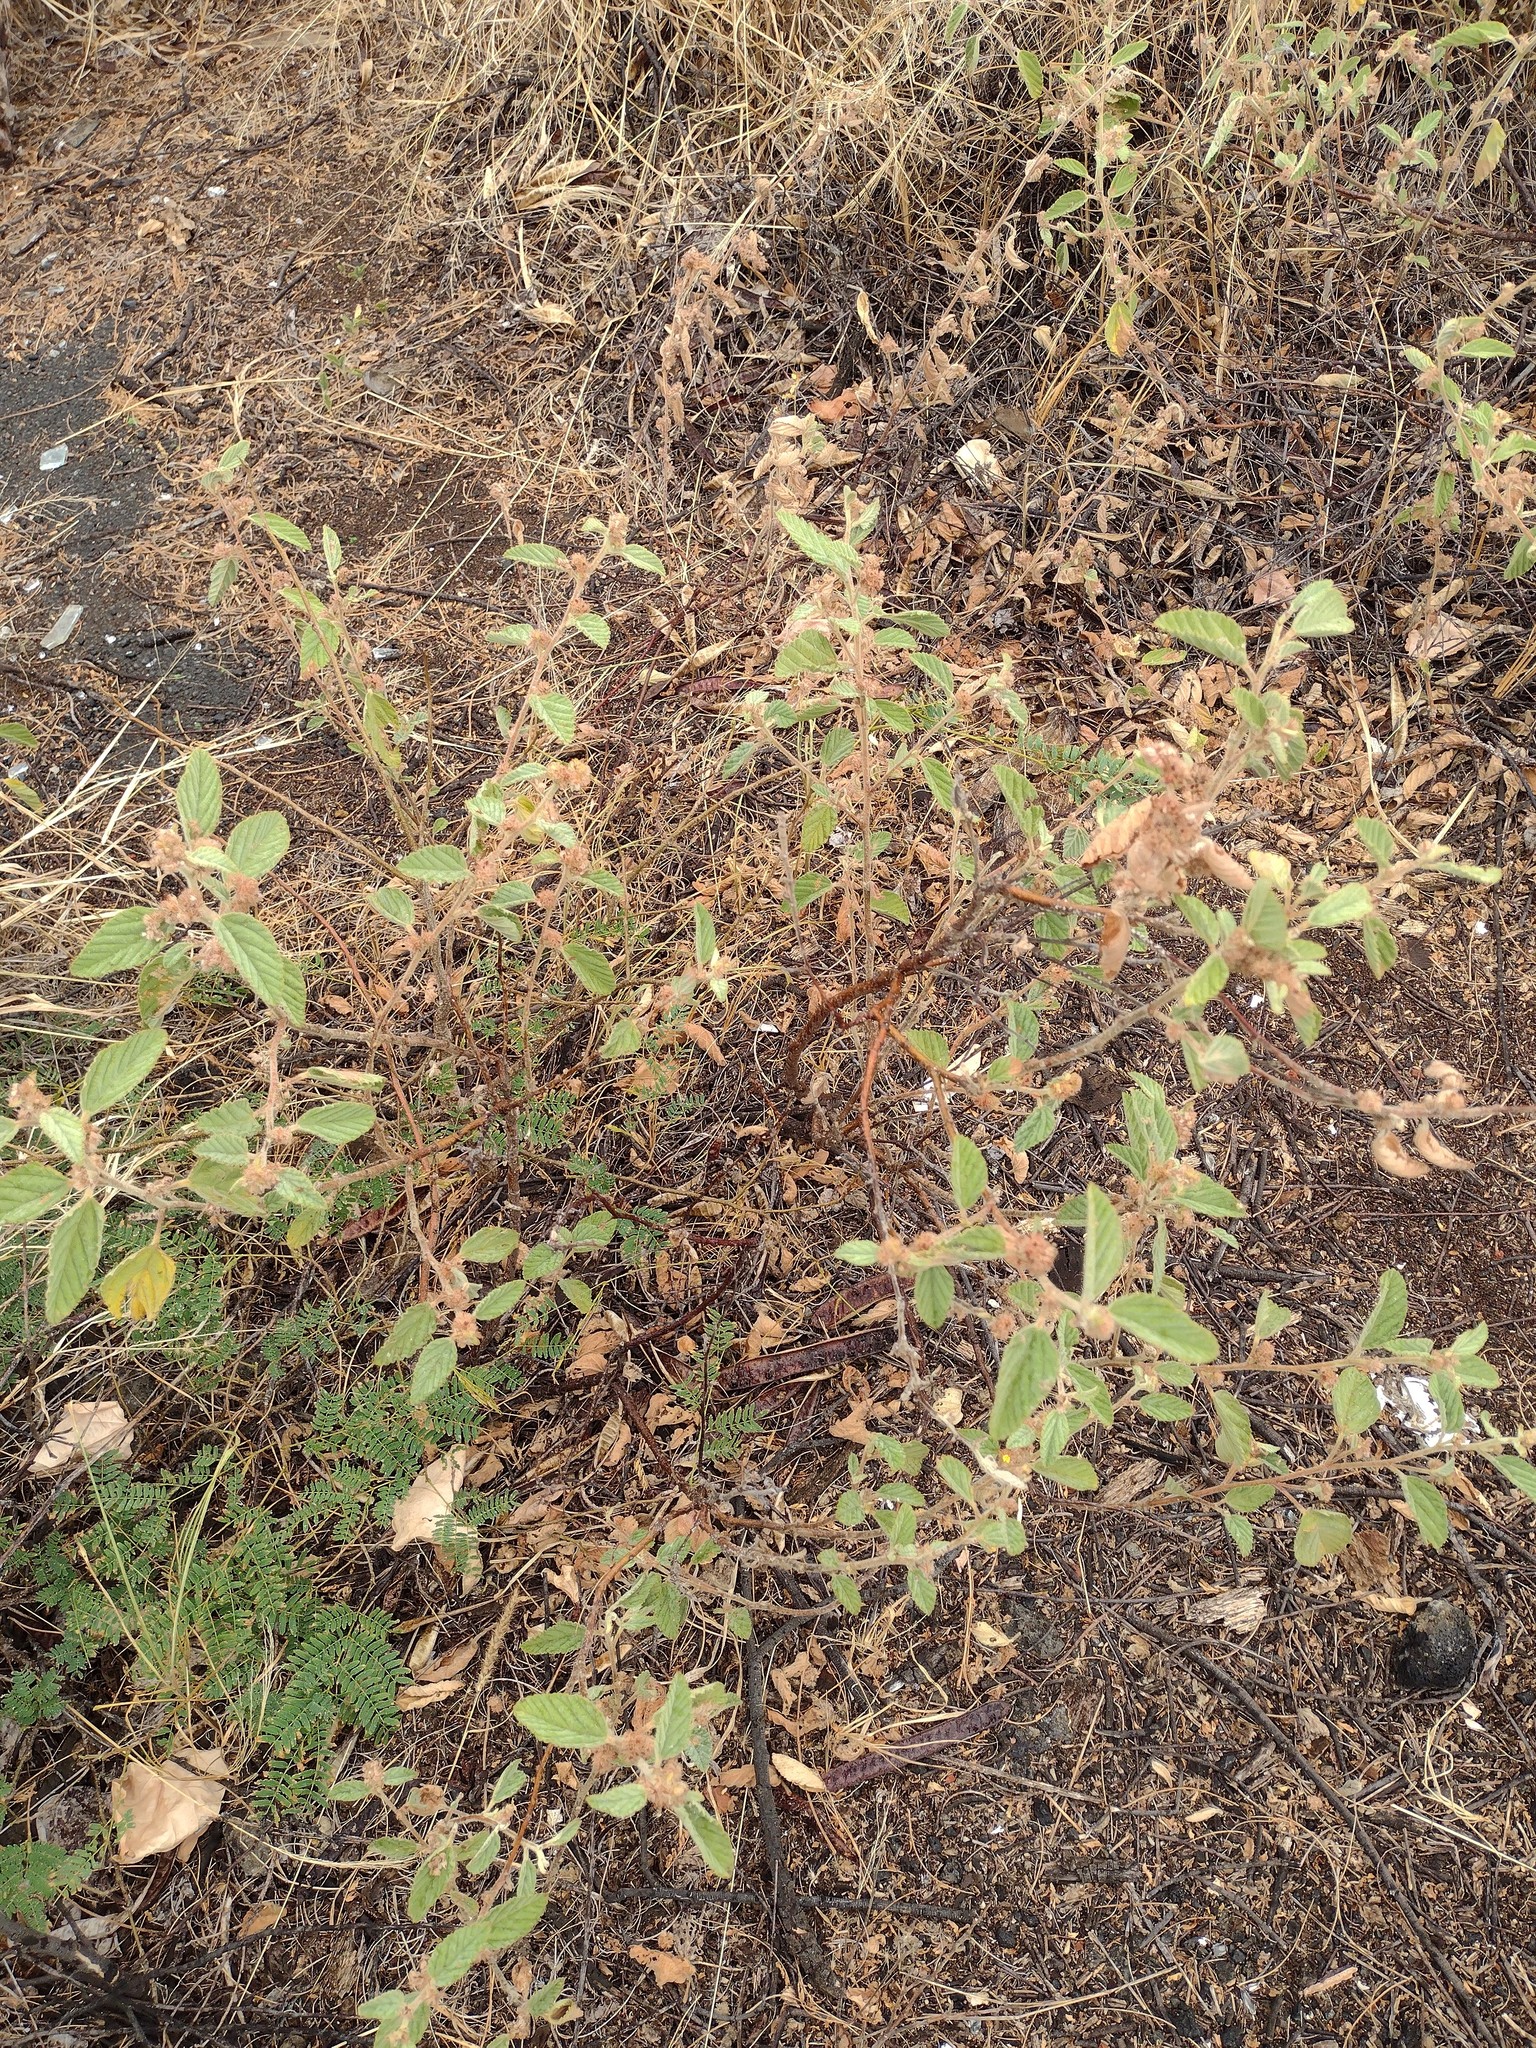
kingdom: Plantae
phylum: Tracheophyta
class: Magnoliopsida
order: Malvales
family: Malvaceae
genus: Waltheria
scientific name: Waltheria indica
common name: Leather-coat
